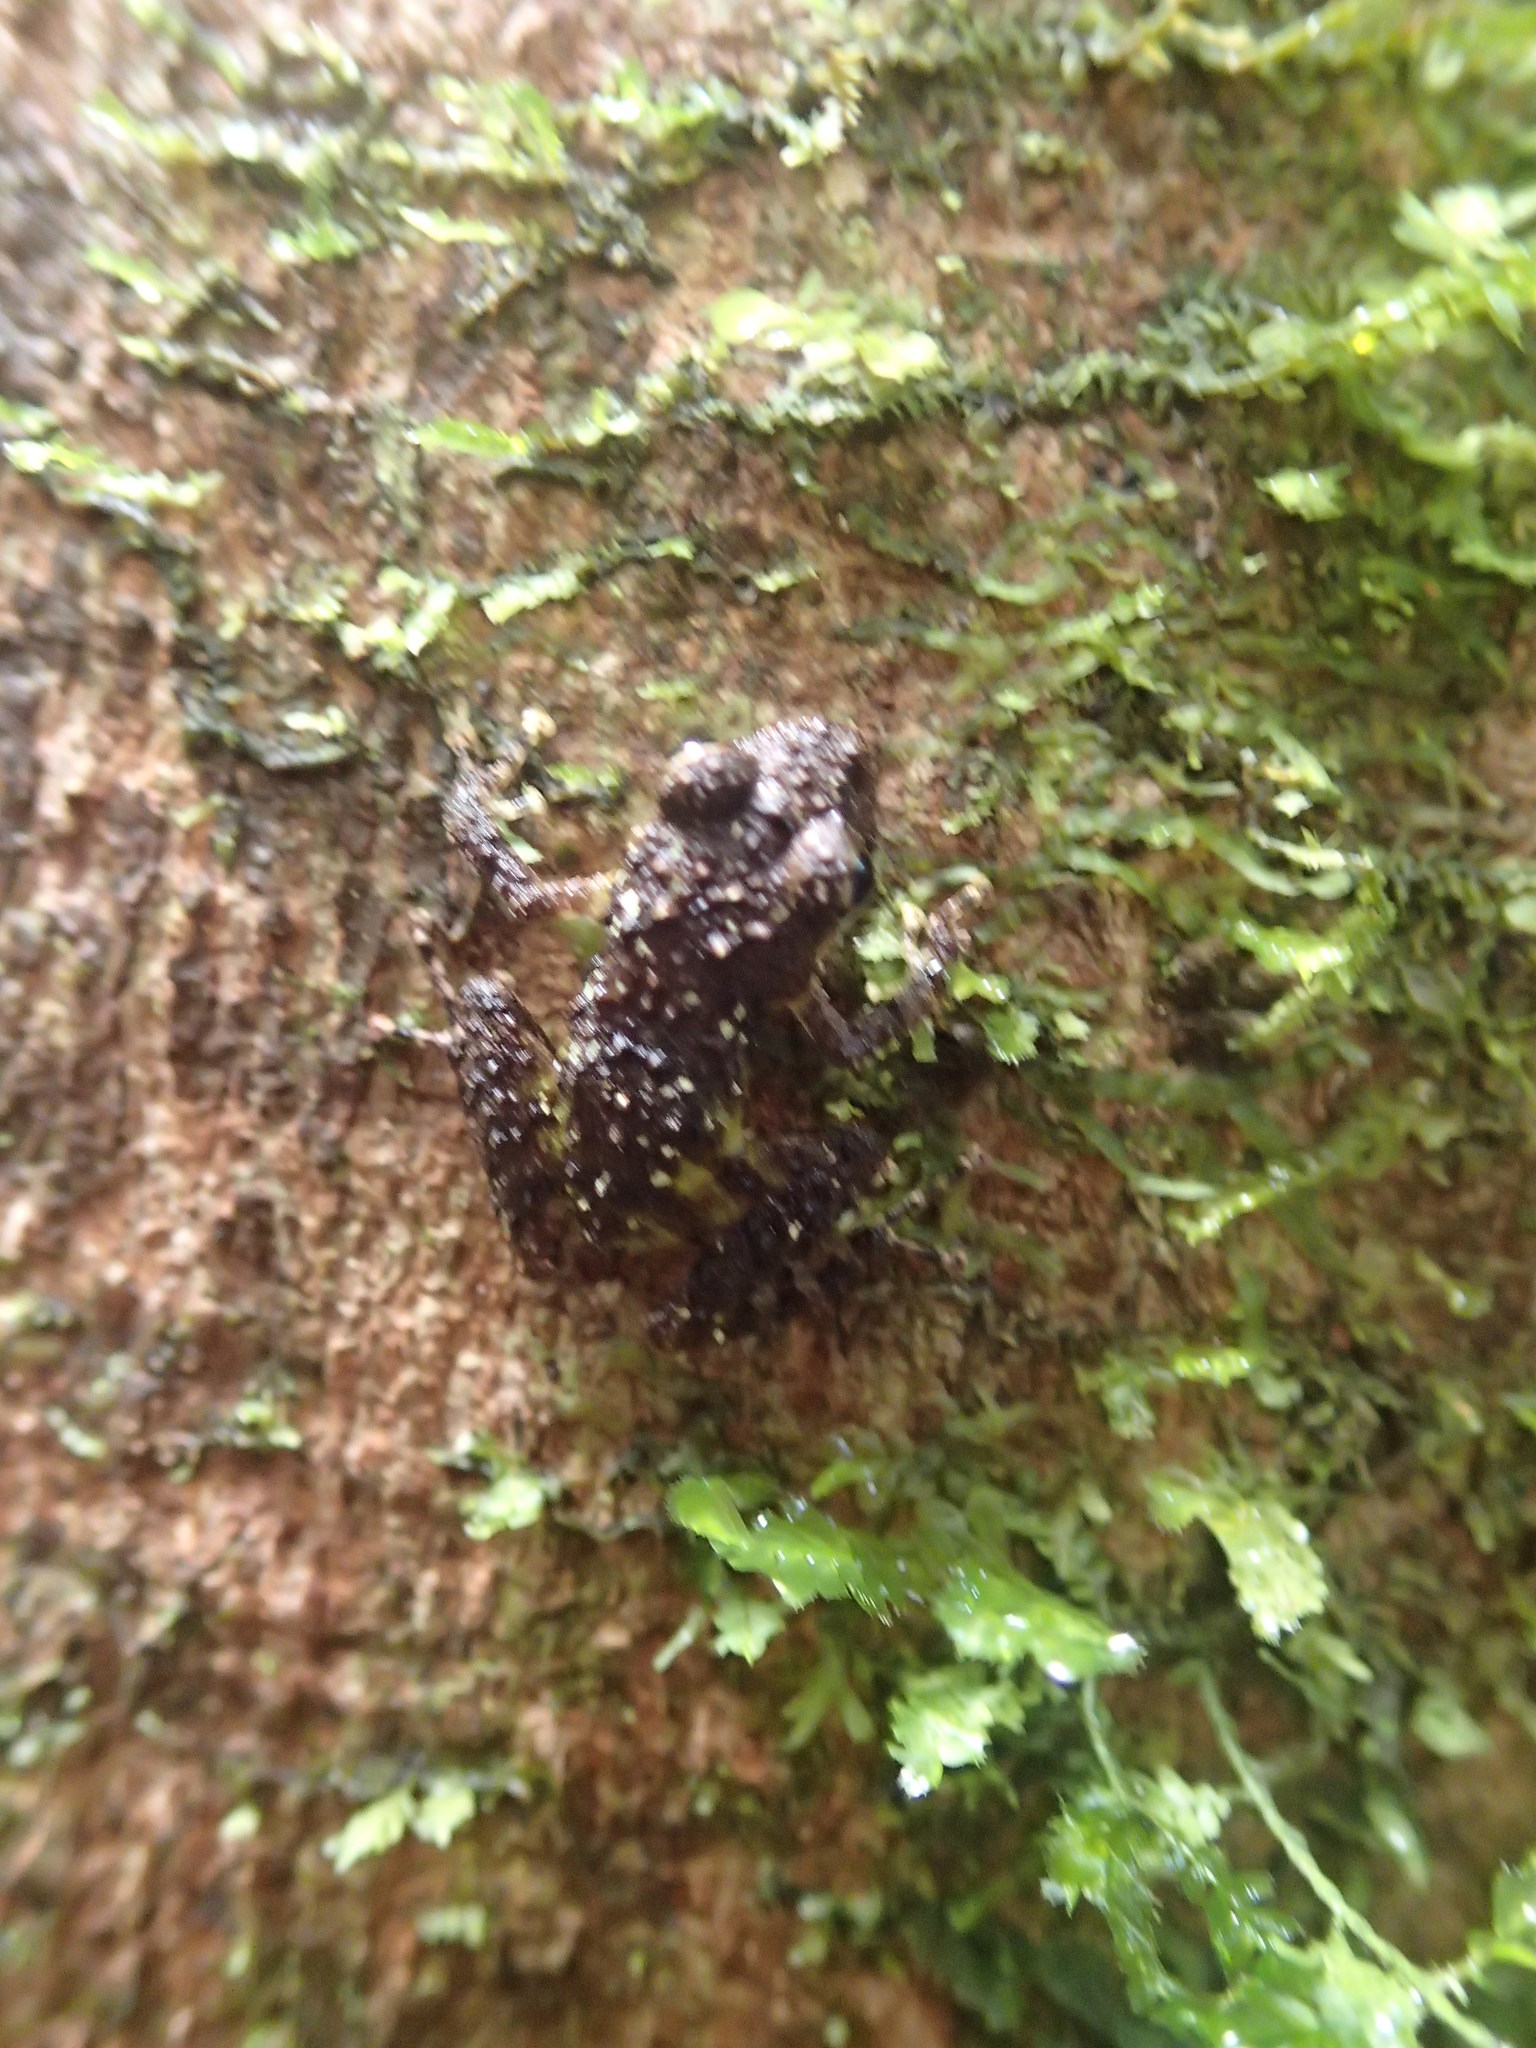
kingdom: Animalia
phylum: Chordata
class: Amphibia
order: Anura
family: Craugastoridae
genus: Pristimantis
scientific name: Pristimantis diadematus
